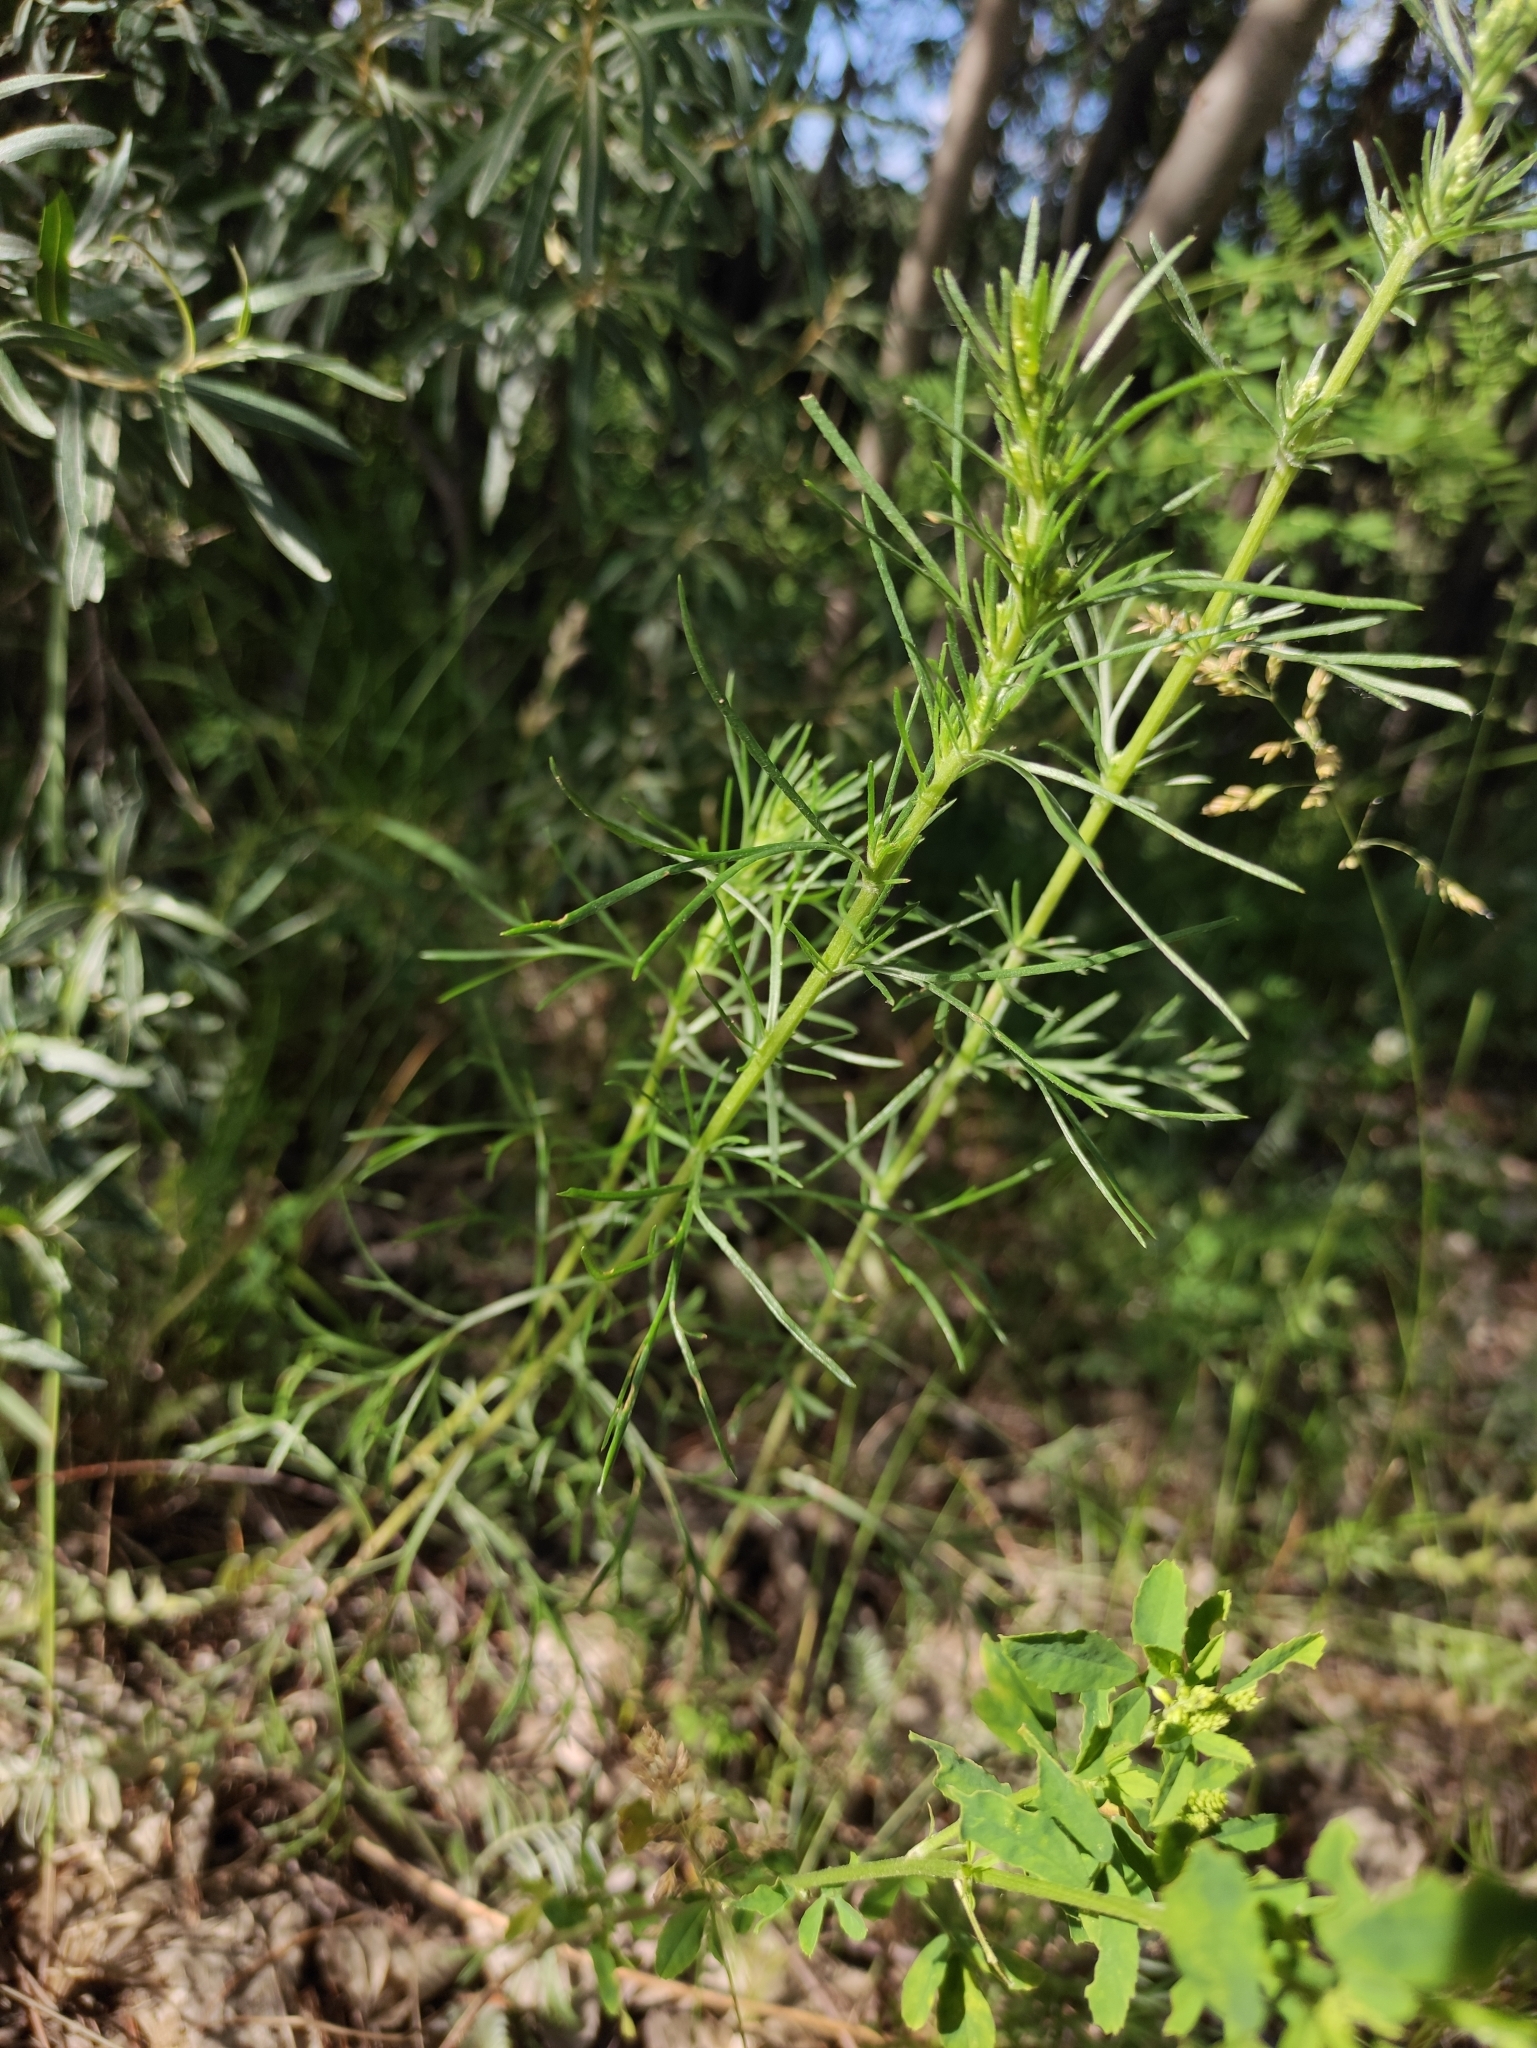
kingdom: Plantae
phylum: Tracheophyta
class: Magnoliopsida
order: Asterales
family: Asteraceae
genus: Artemisia
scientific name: Artemisia pubescens
